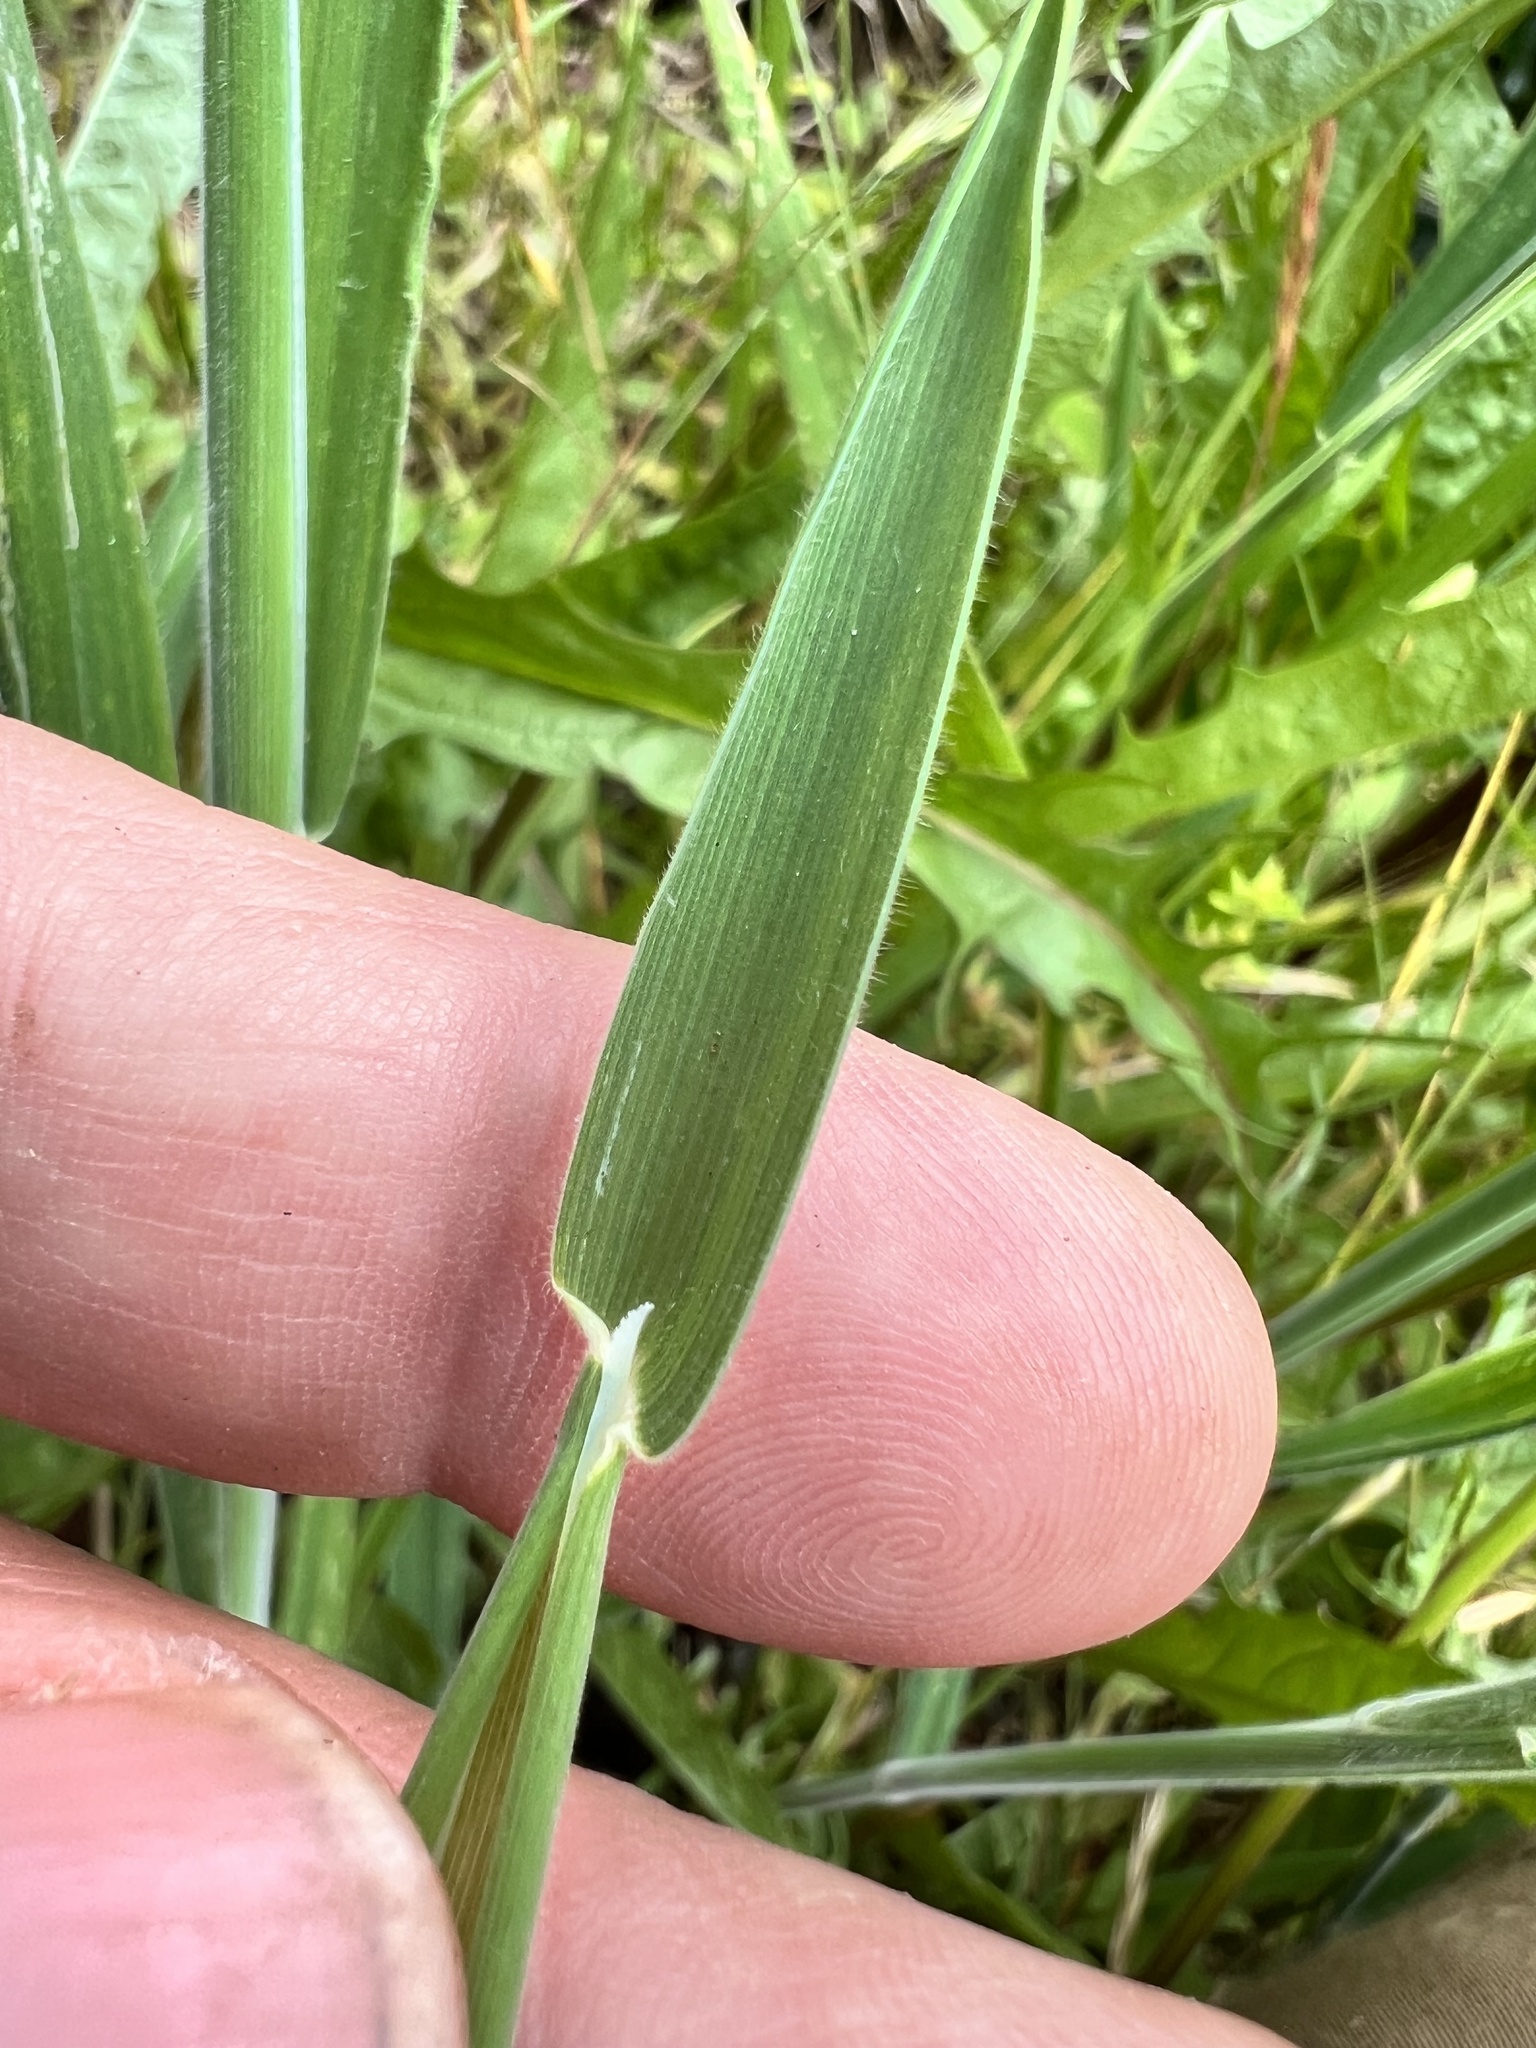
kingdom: Plantae
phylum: Tracheophyta
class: Liliopsida
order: Poales
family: Poaceae
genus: Holcus
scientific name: Holcus lanatus
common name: Yorkshire-fog
